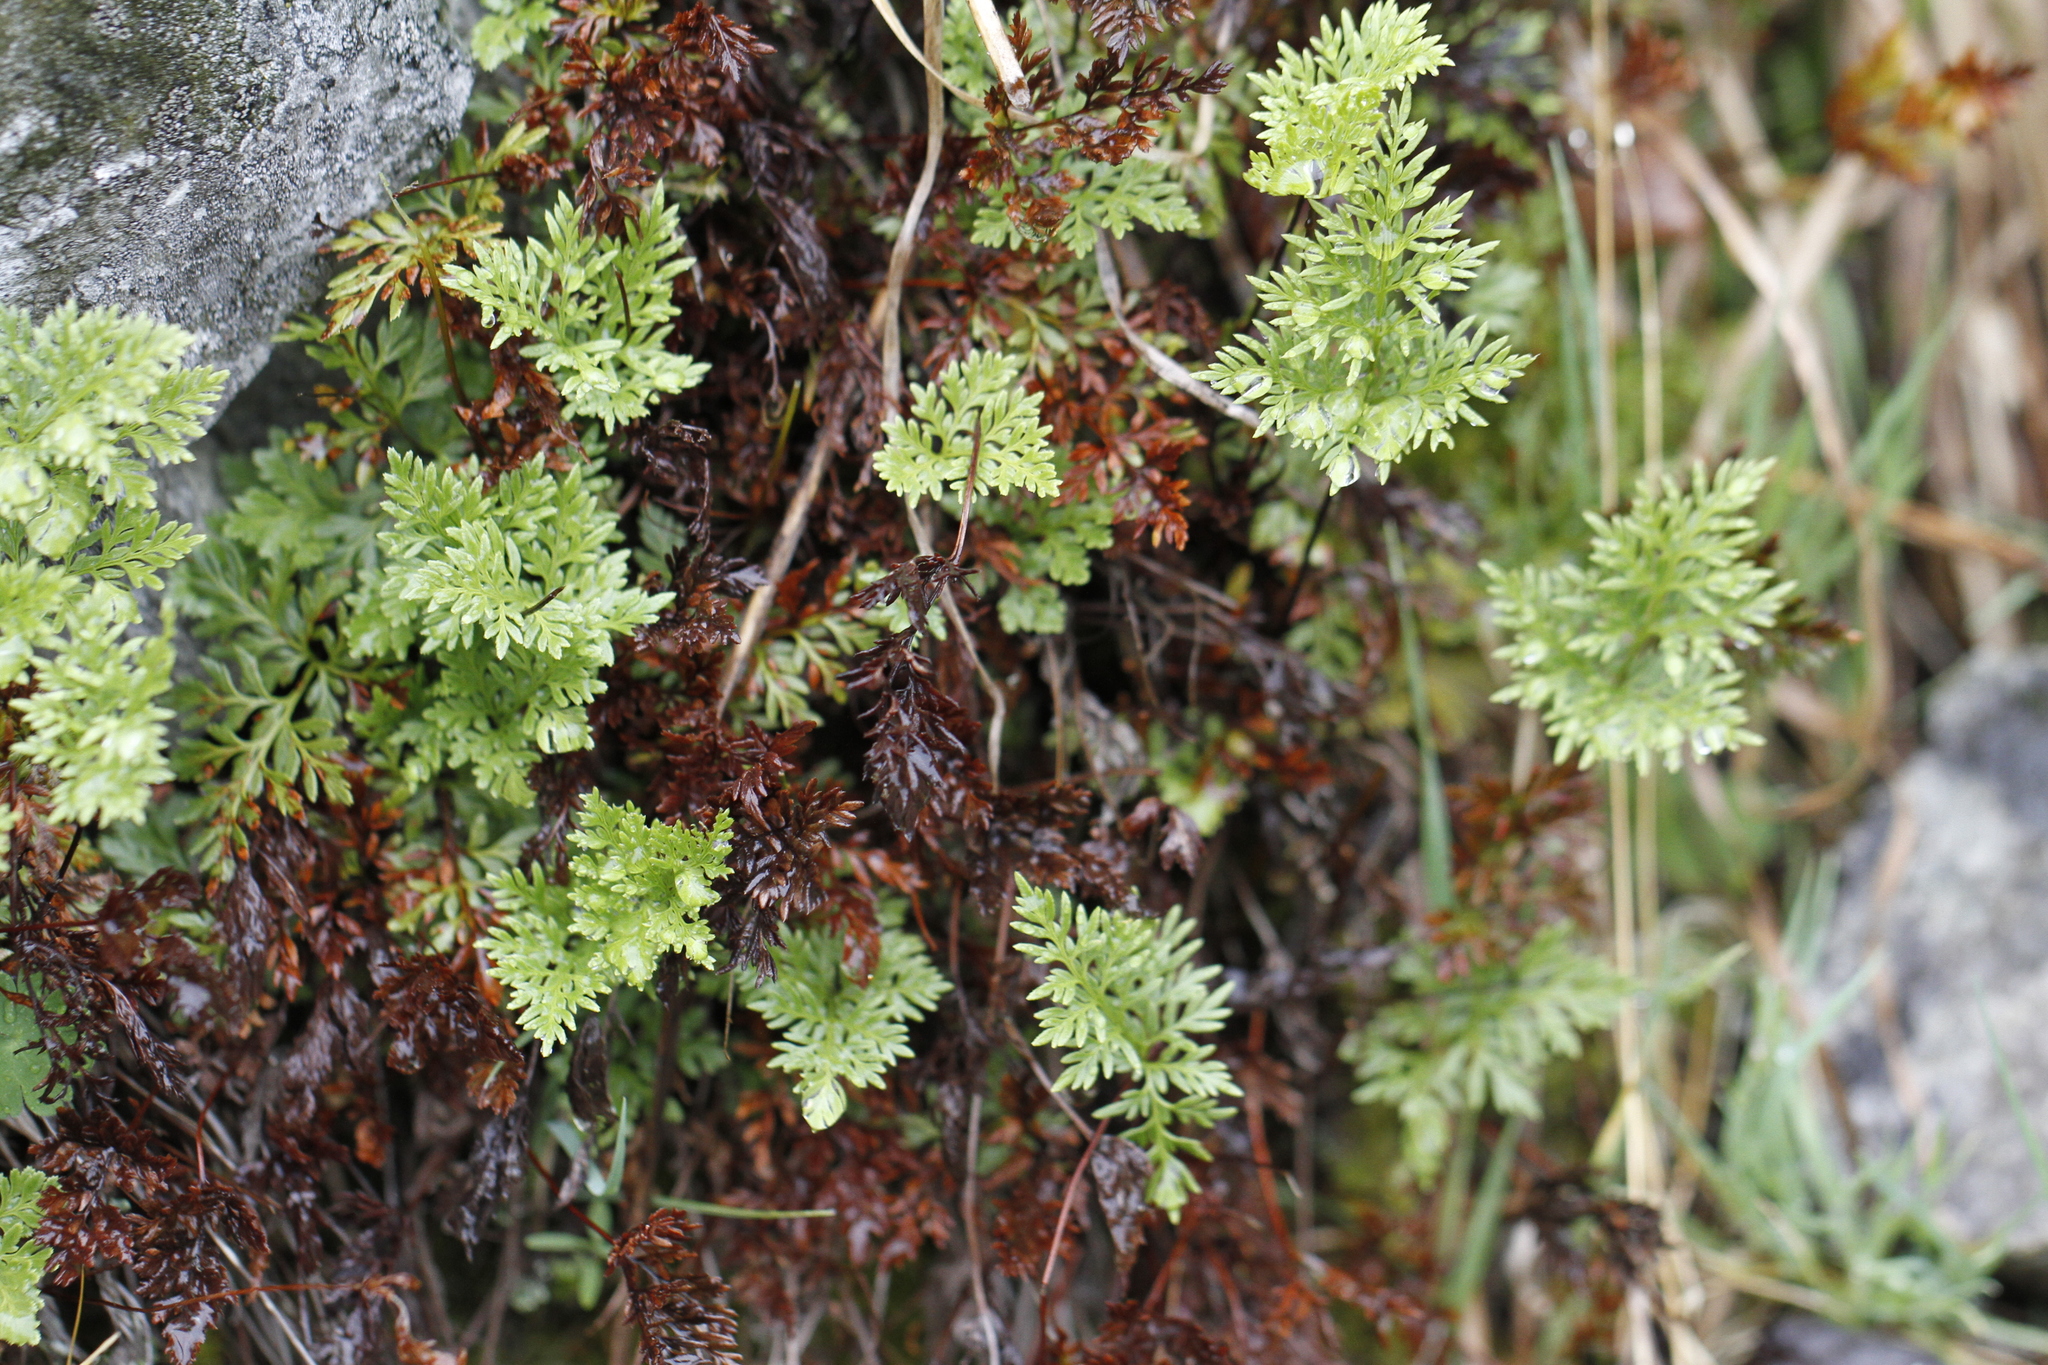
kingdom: Plantae
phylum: Tracheophyta
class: Polypodiopsida
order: Polypodiales
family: Pteridaceae
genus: Aspidotis
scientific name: Aspidotis densa
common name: Indian's dream
